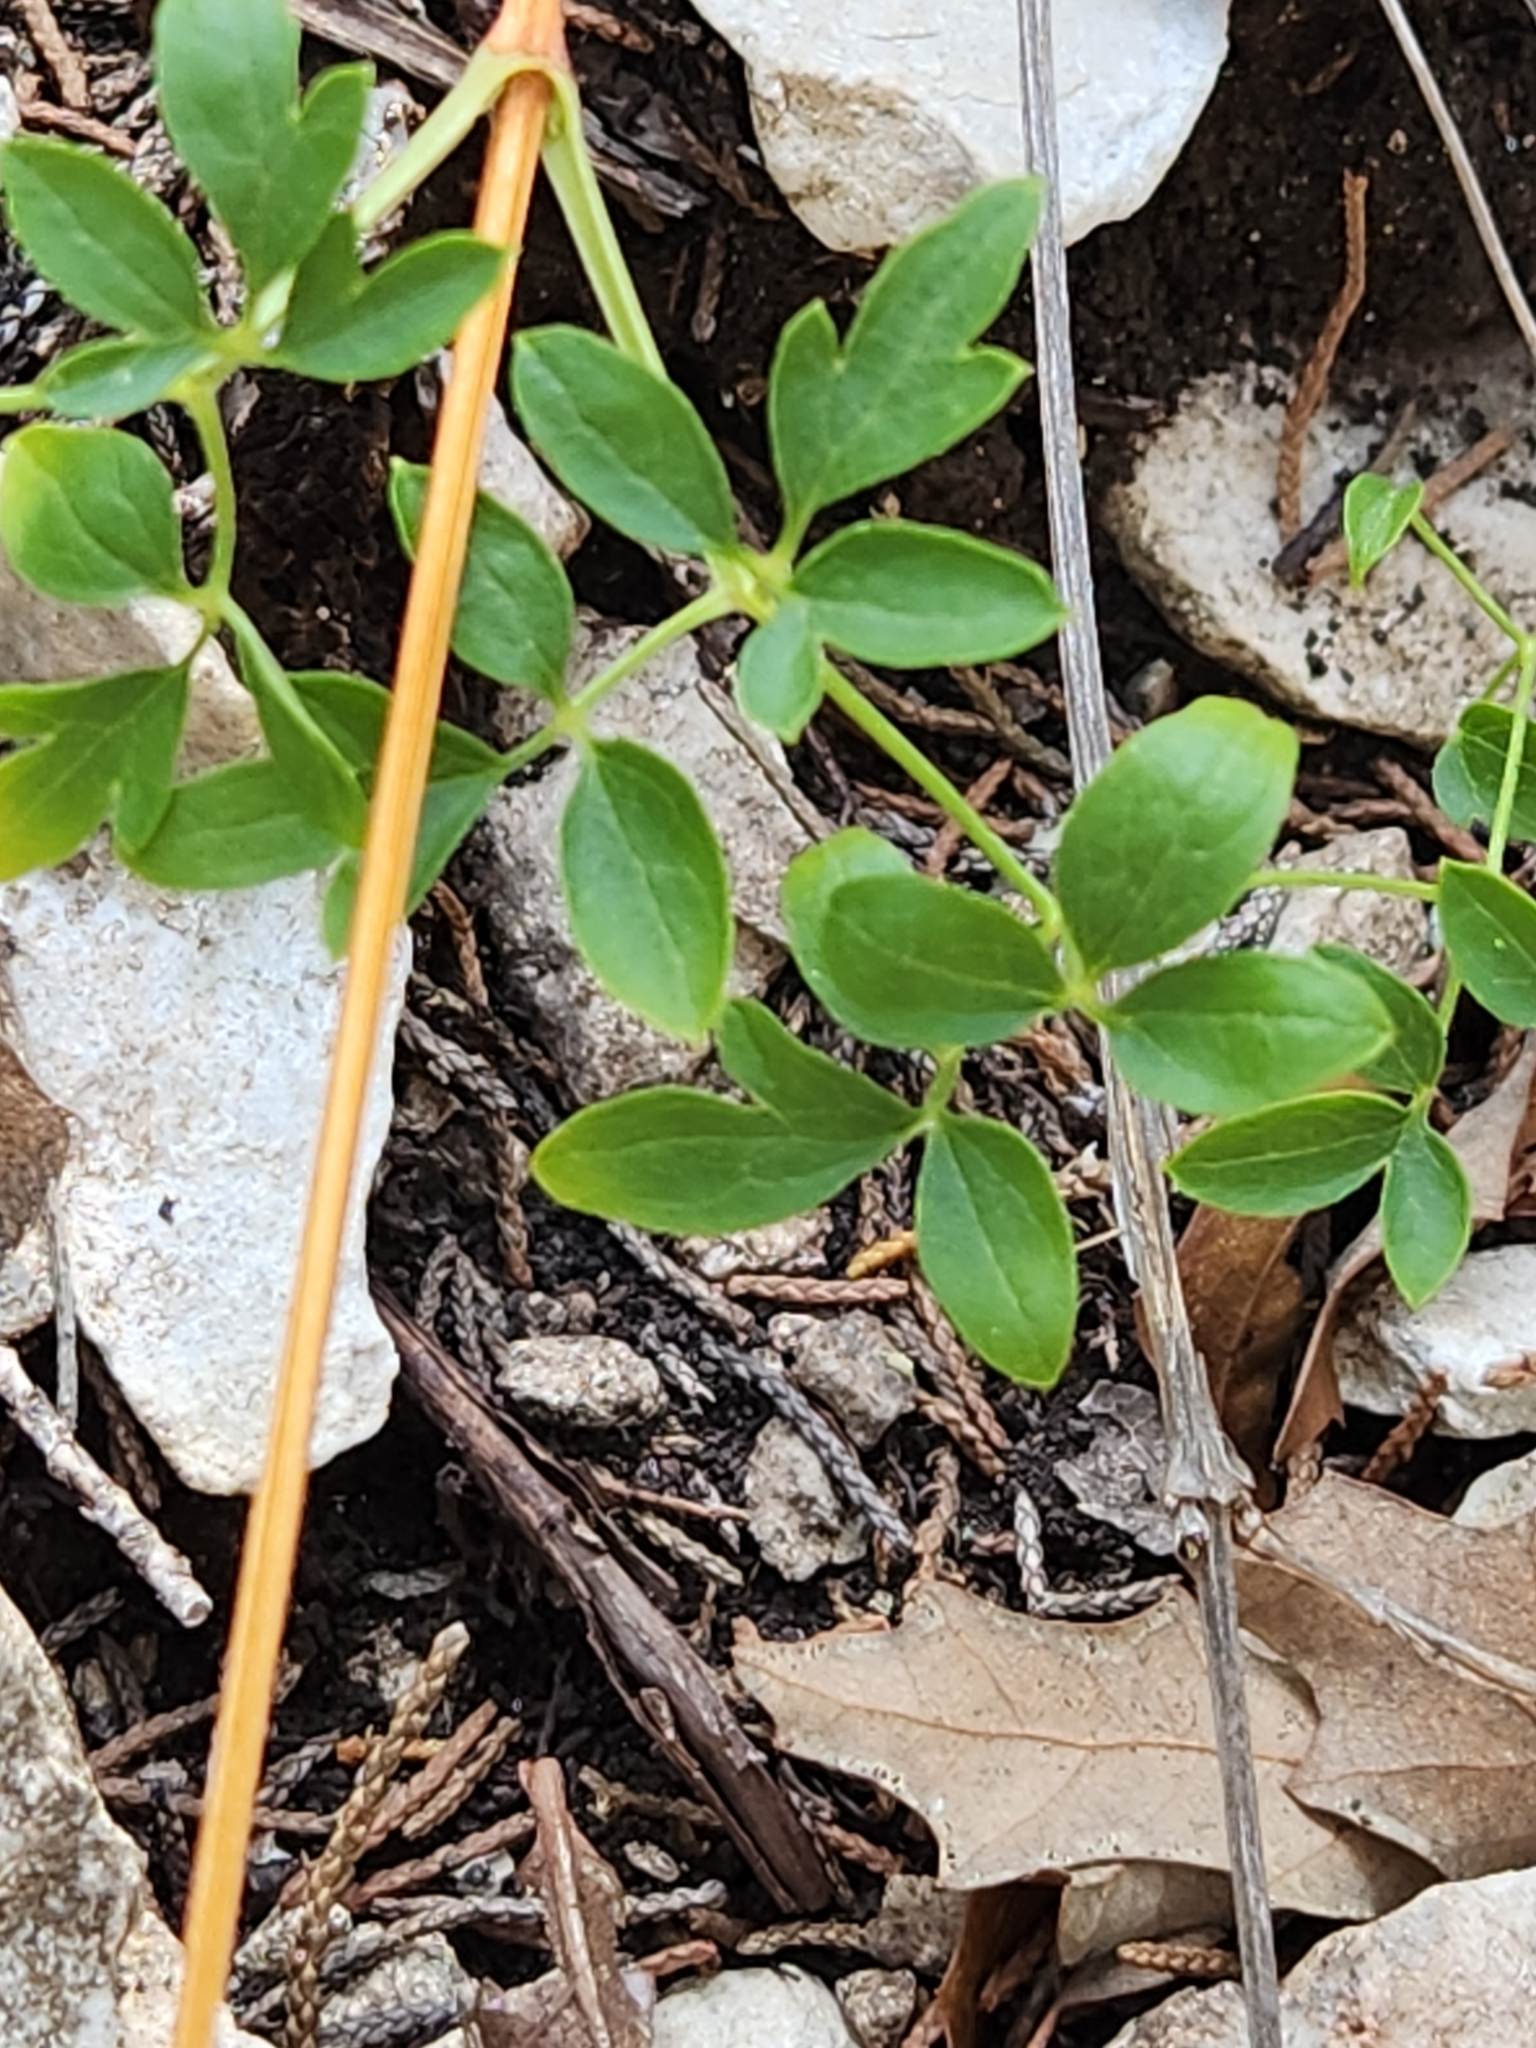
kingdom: Plantae
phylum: Tracheophyta
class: Magnoliopsida
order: Ranunculales
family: Ranunculaceae
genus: Clematis
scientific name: Clematis pitcheri
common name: Bellflower clematis
